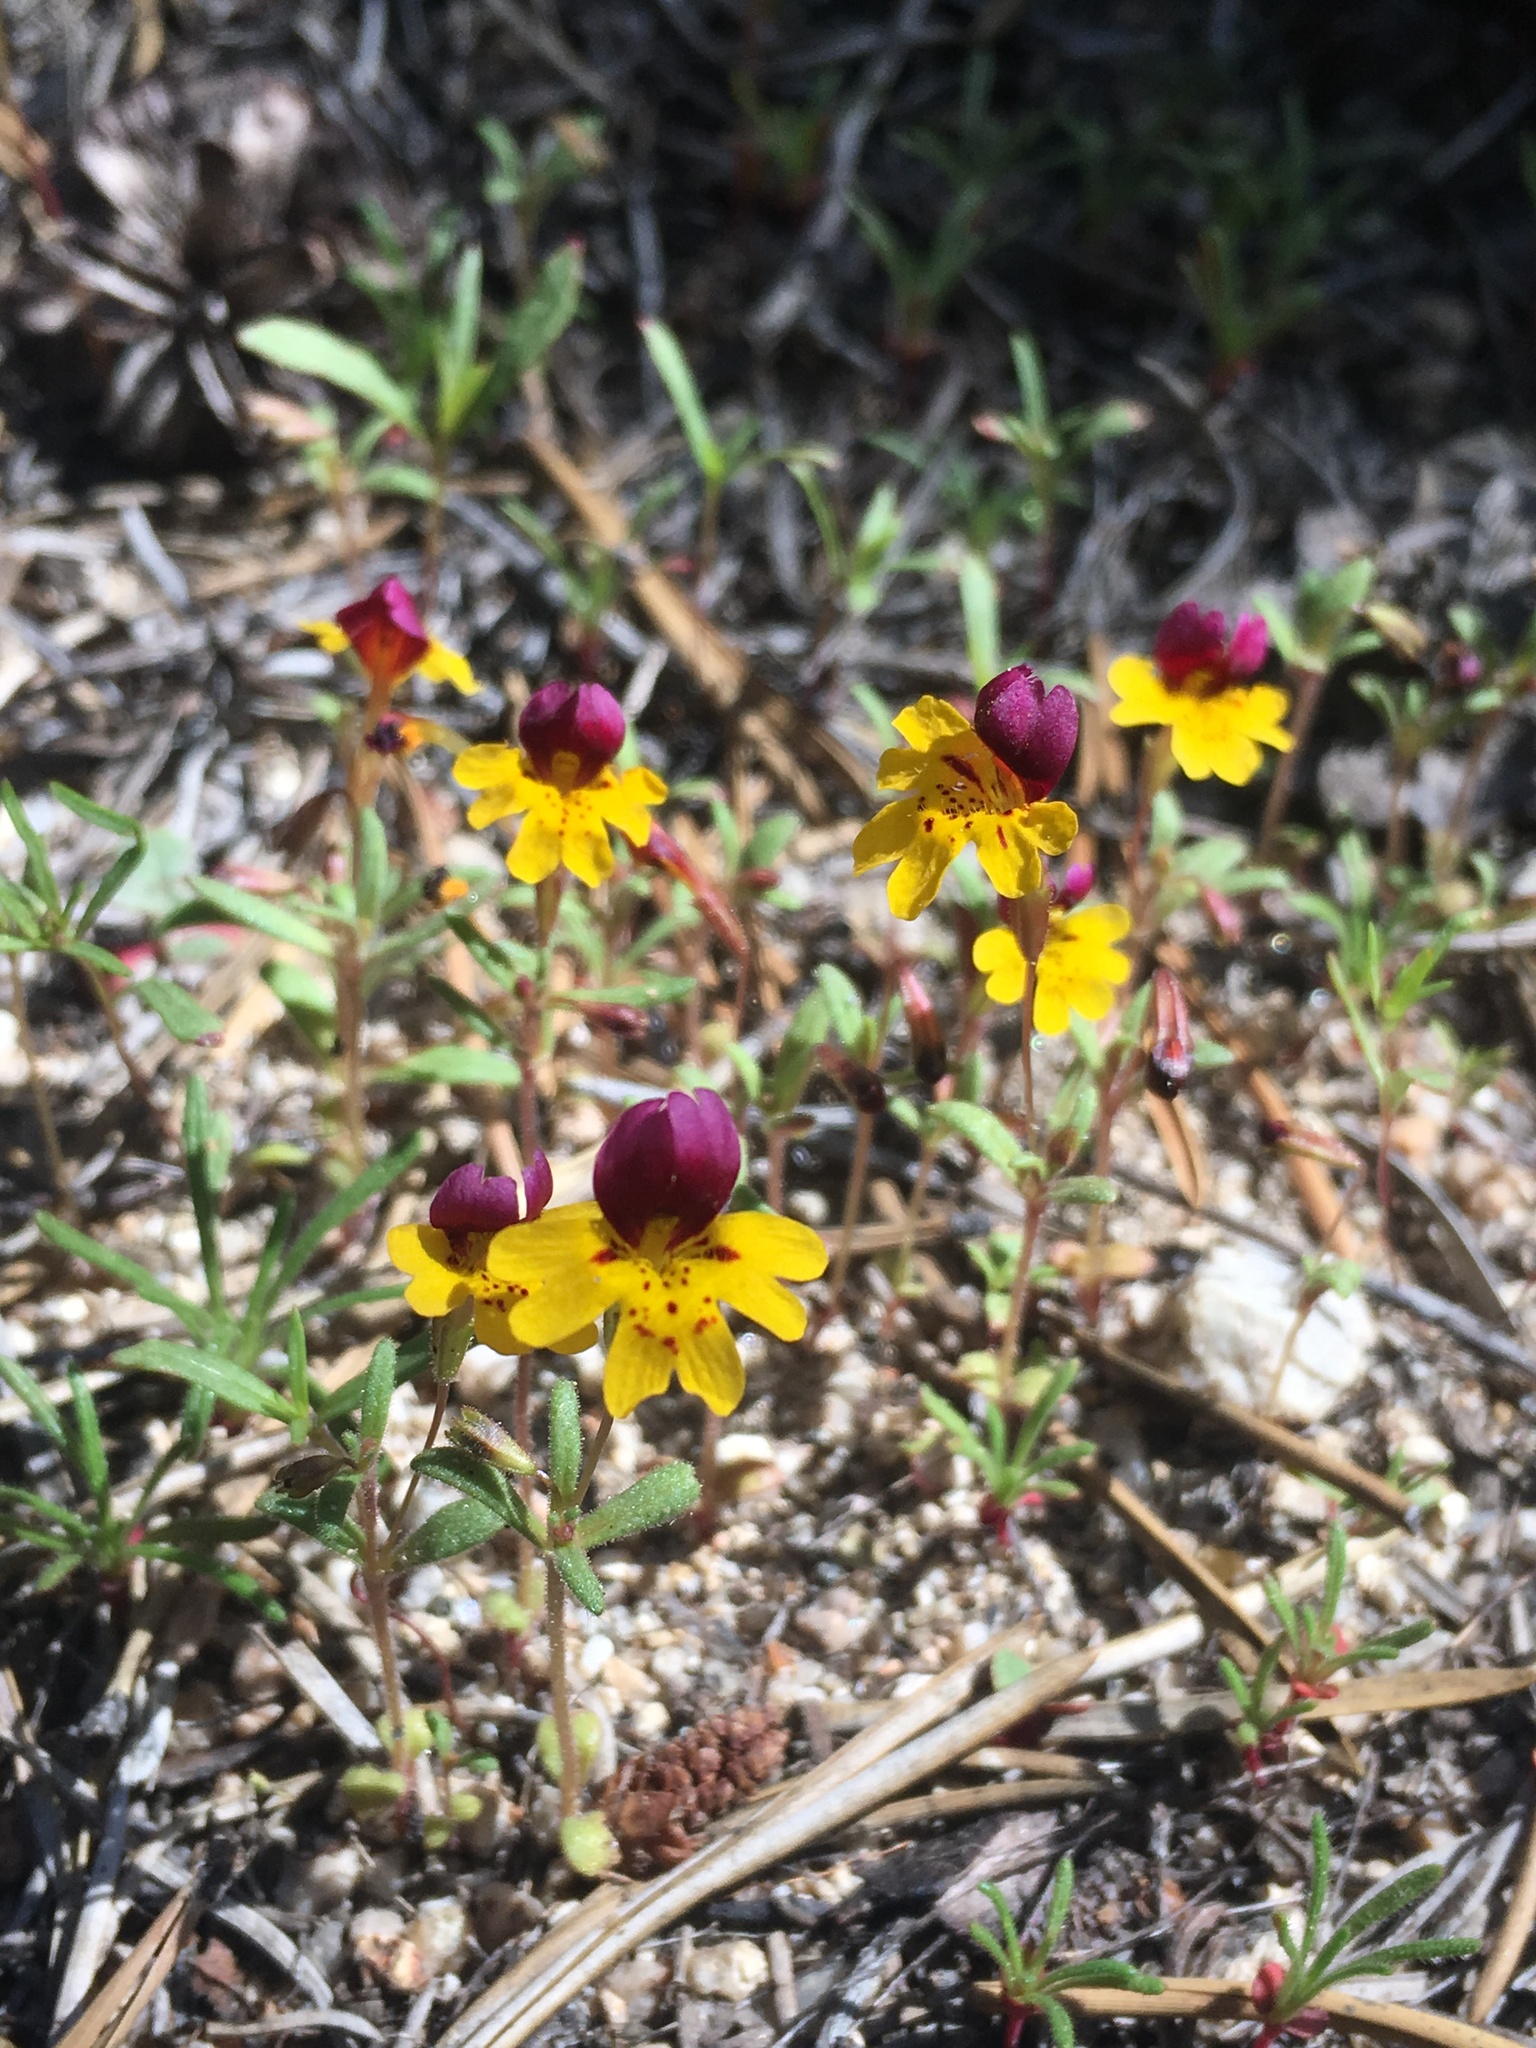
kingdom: Plantae
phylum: Tracheophyta
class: Magnoliopsida
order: Lamiales
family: Phrymaceae
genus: Erythranthe
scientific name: Erythranthe barbata
